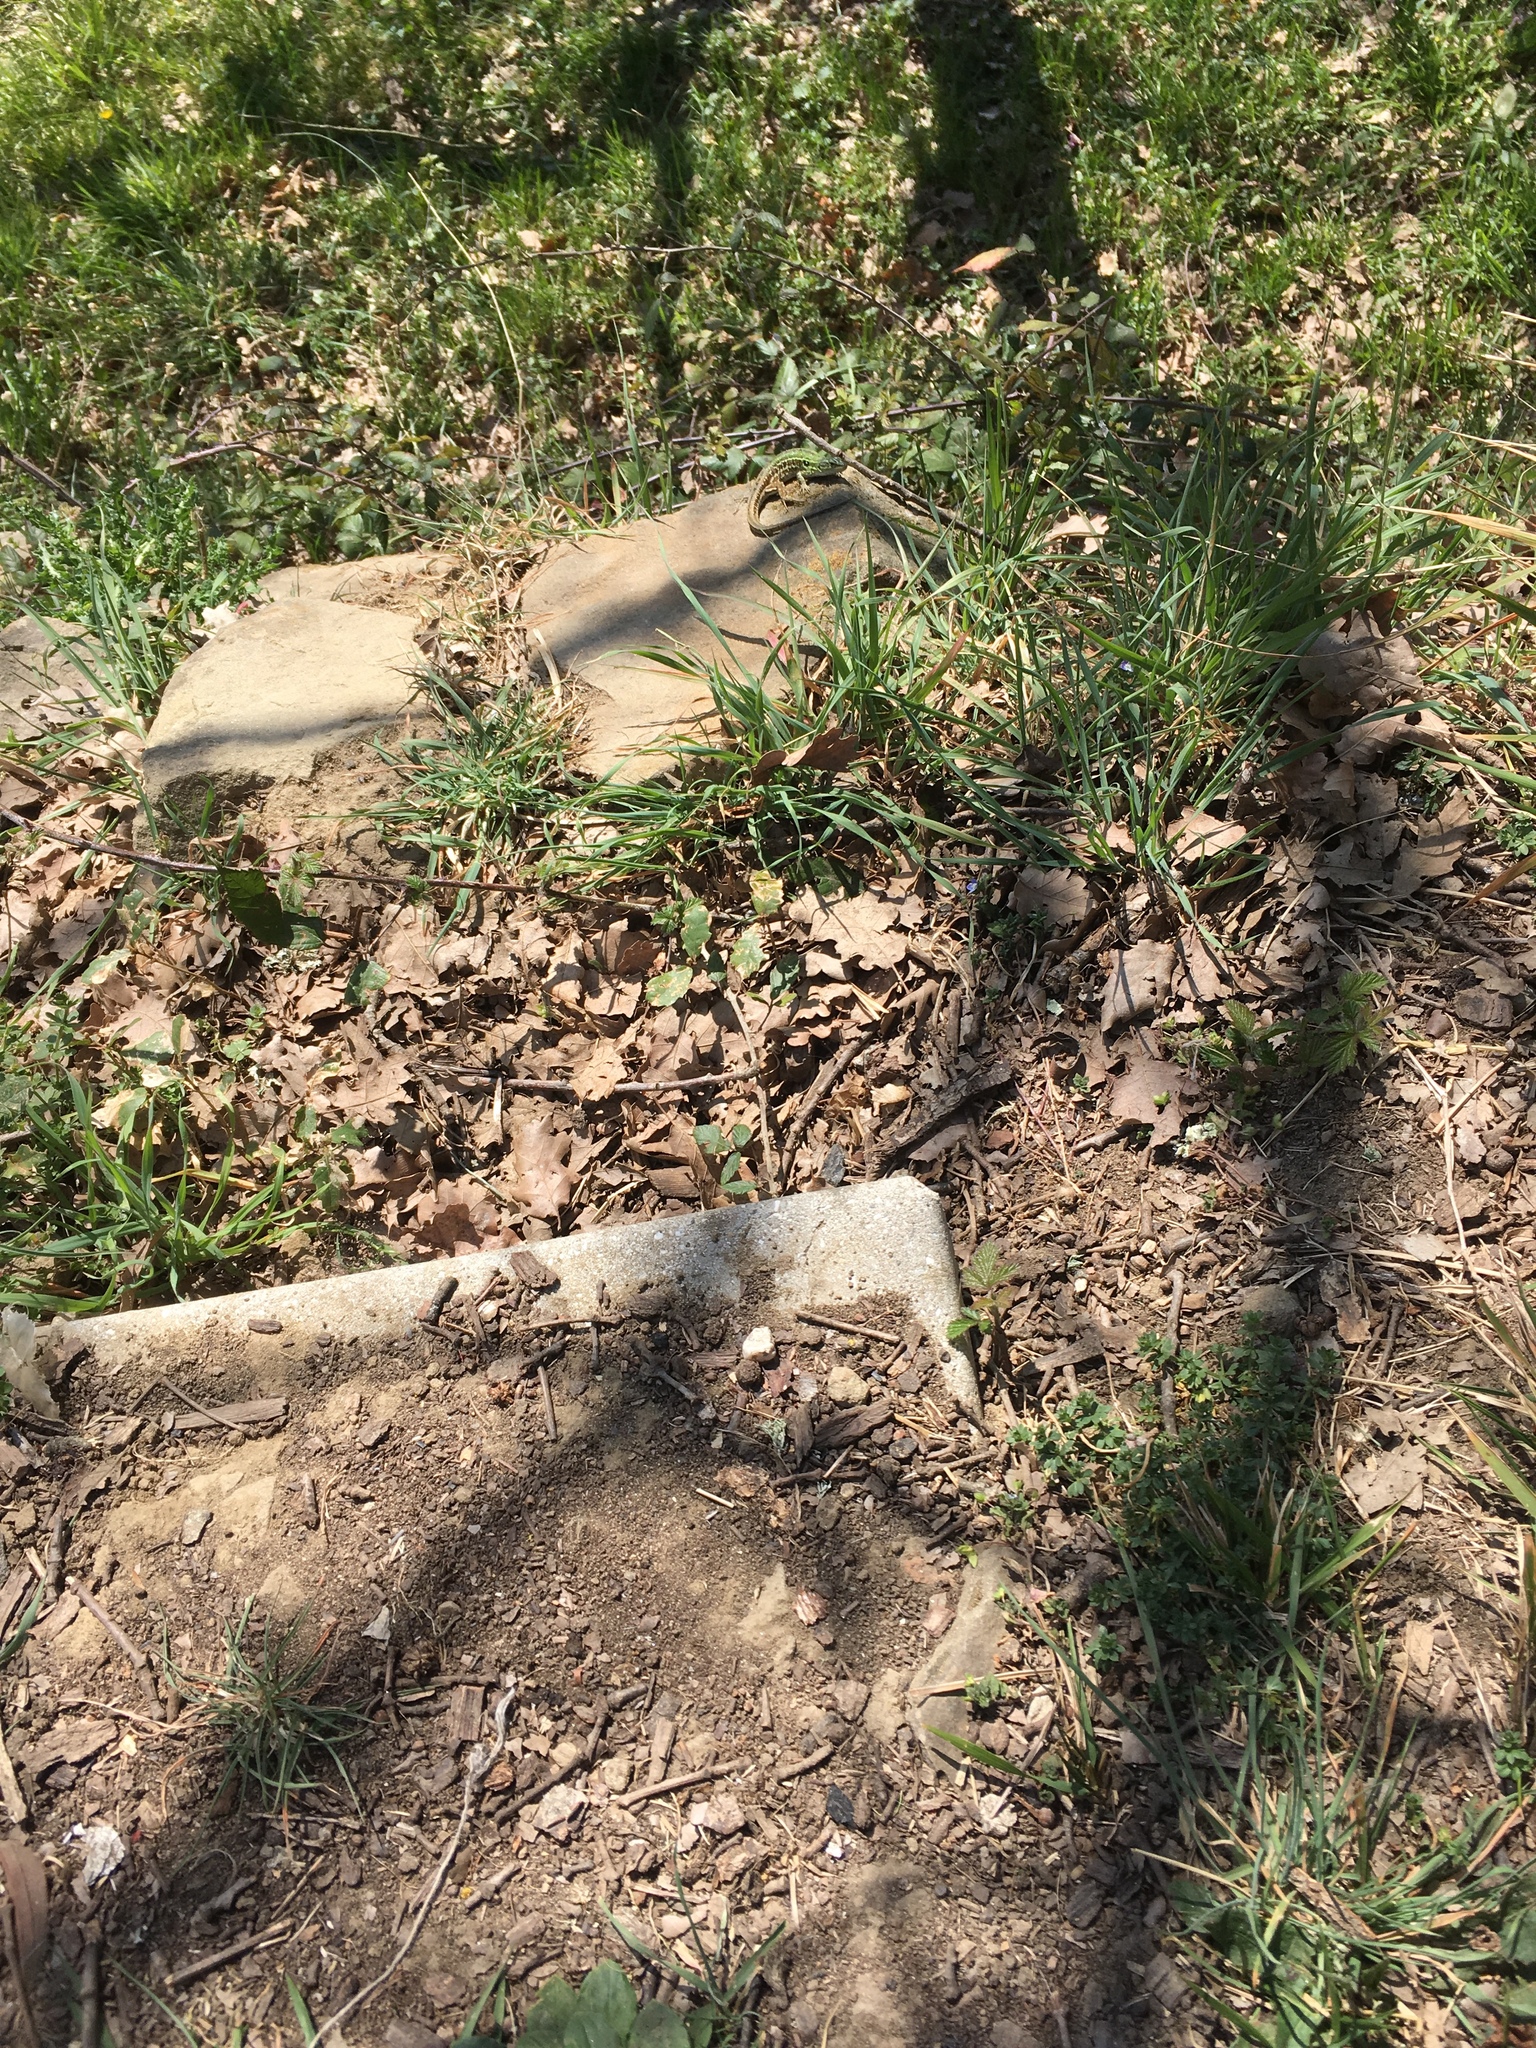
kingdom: Animalia
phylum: Chordata
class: Squamata
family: Lacertidae
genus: Podarcis
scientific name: Podarcis siculus
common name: Italian wall lizard
